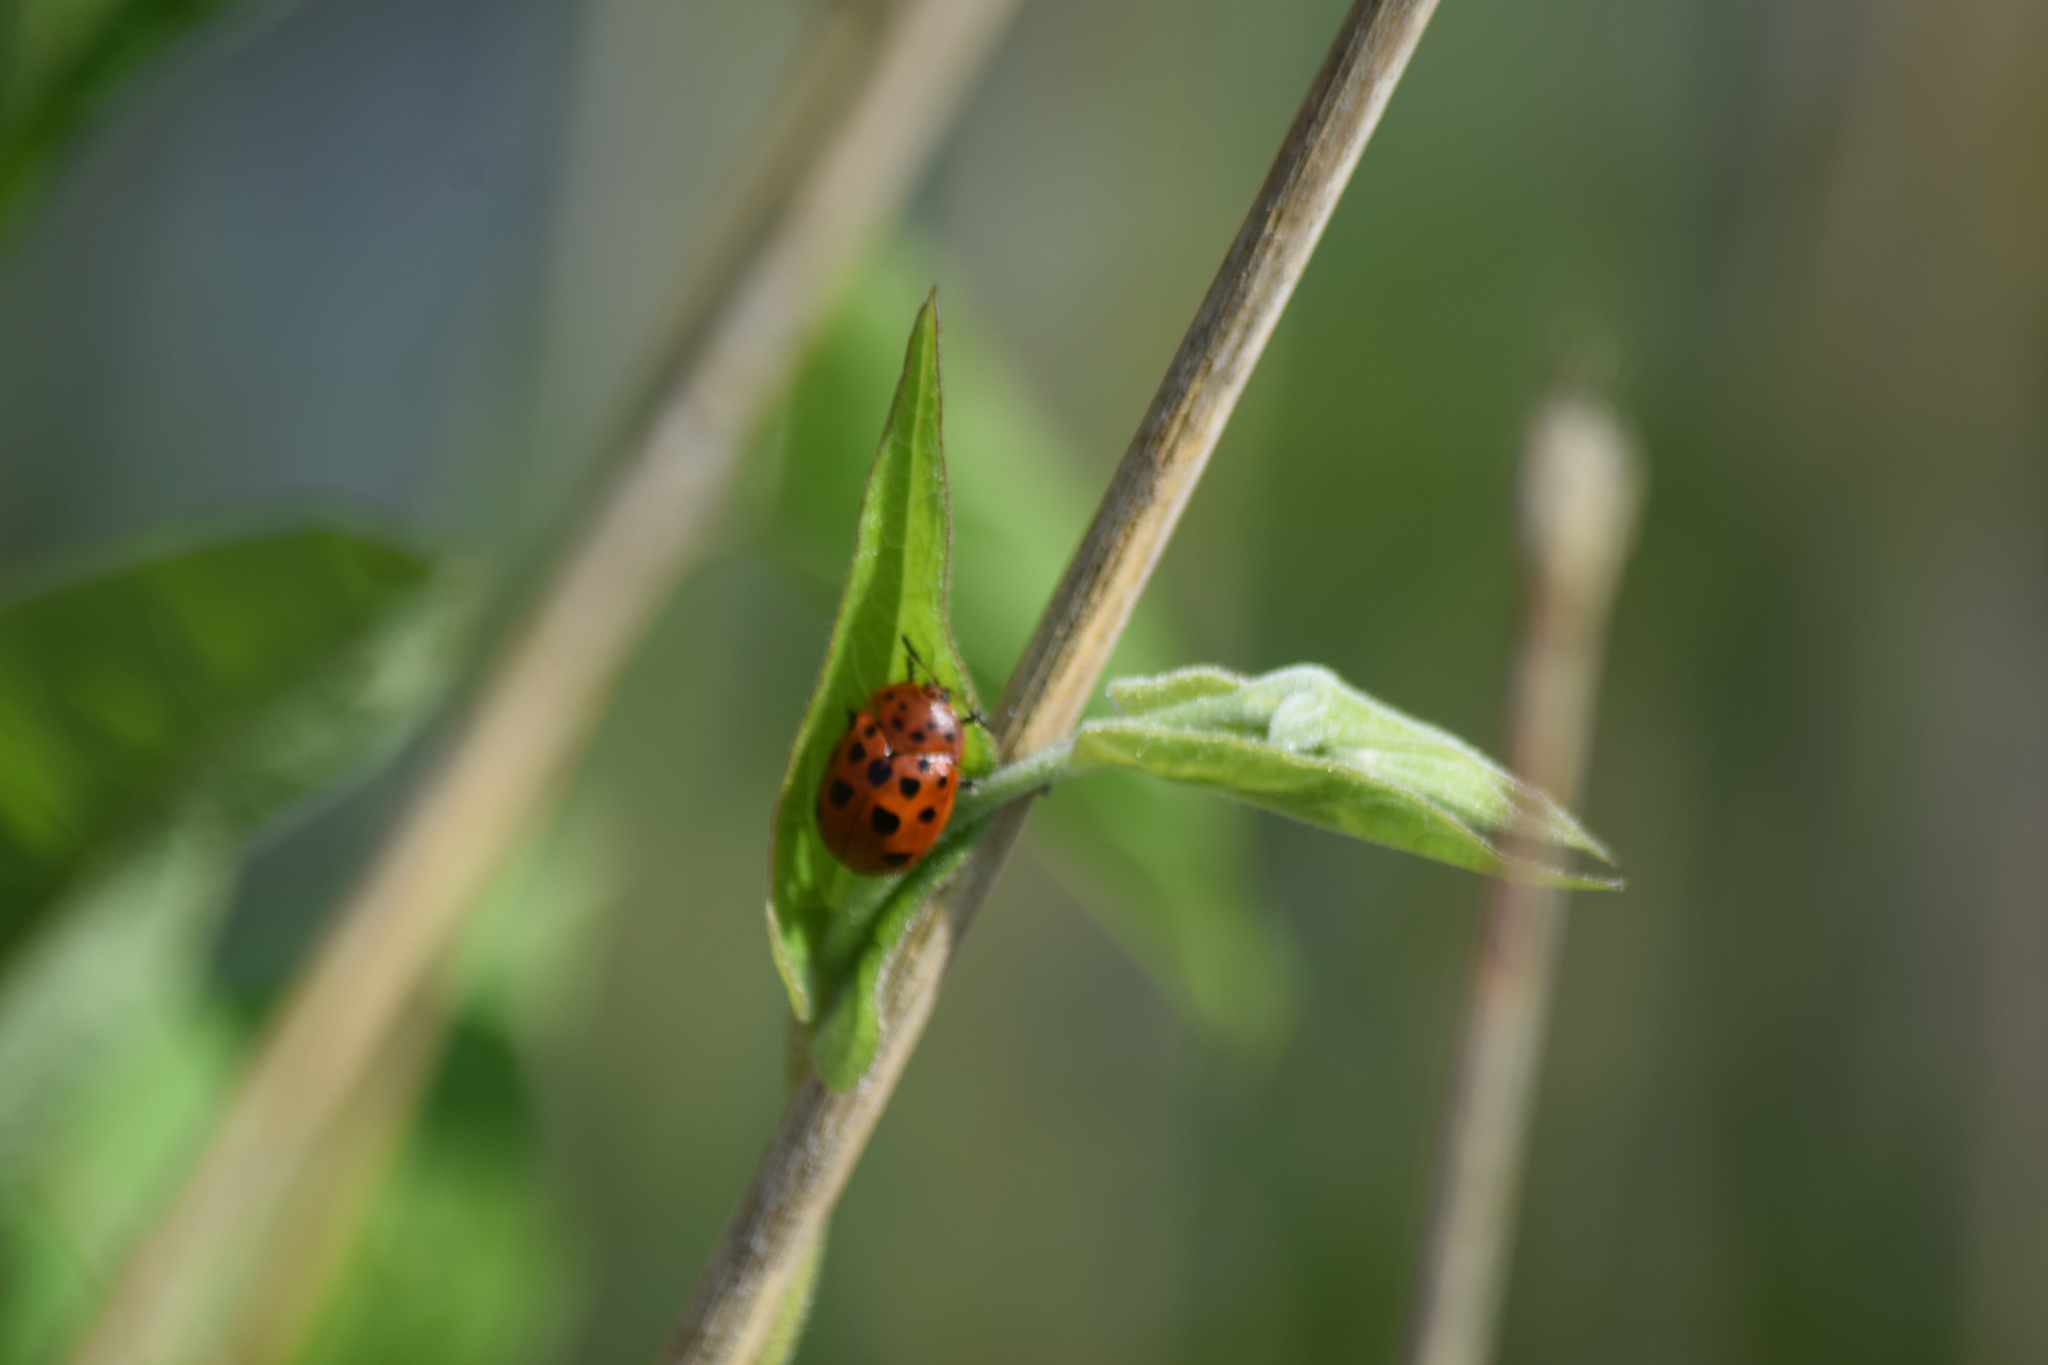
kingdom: Animalia
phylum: Arthropoda
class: Insecta
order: Coleoptera
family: Chrysomelidae
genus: Chelymorpha
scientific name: Chelymorpha cassidea
